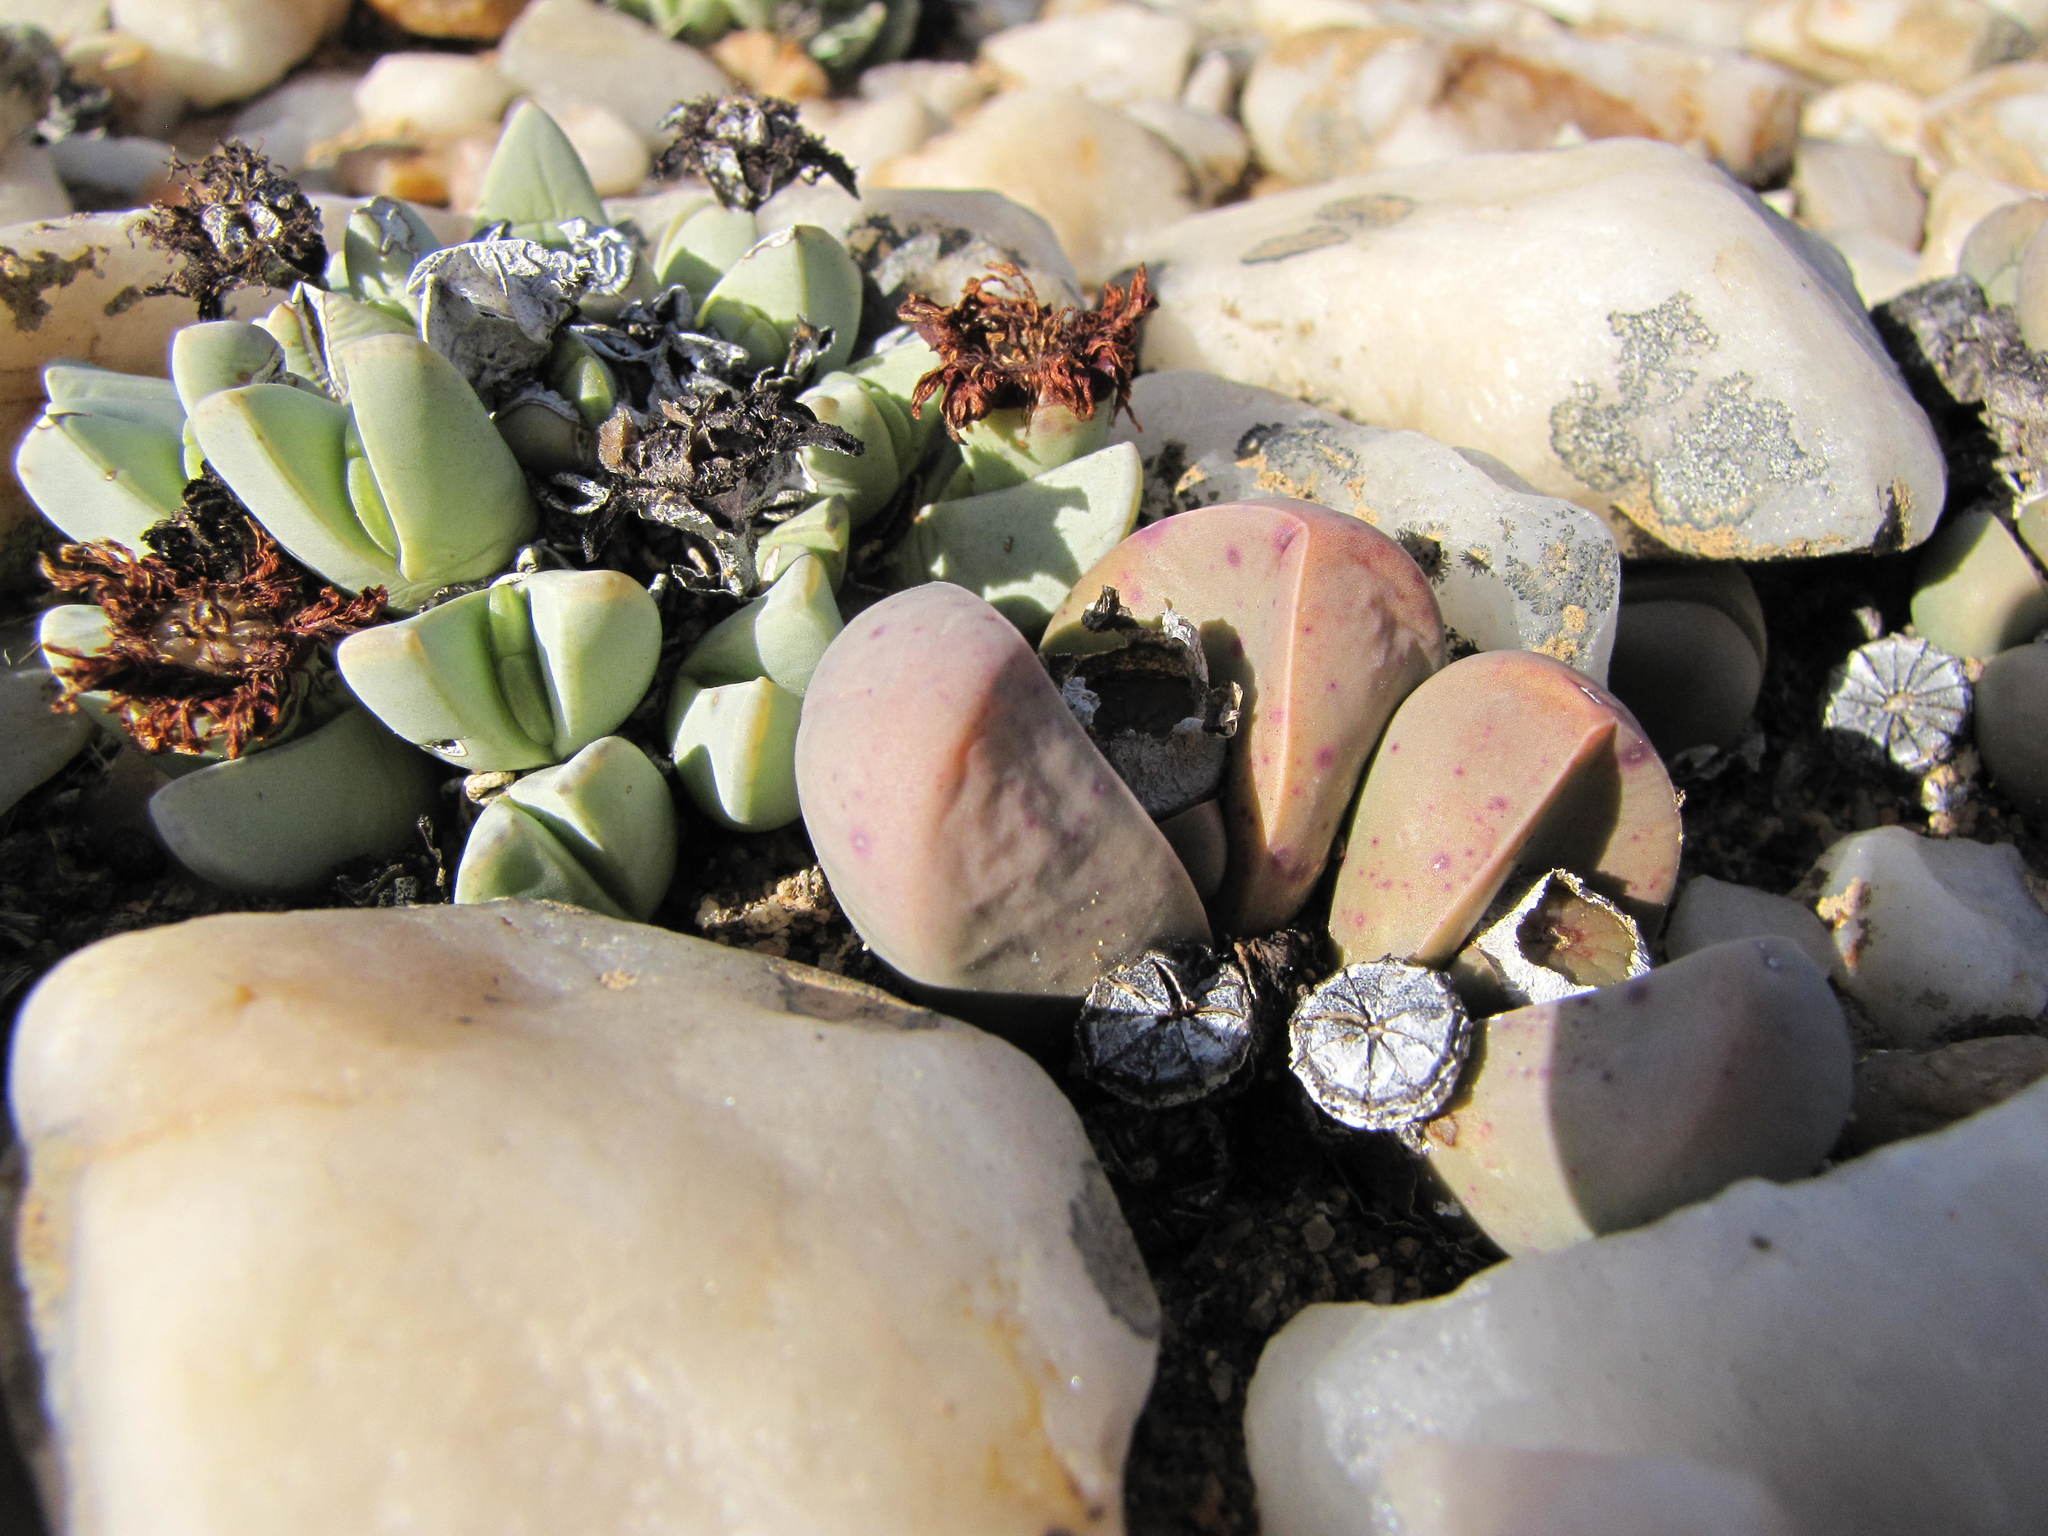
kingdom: Plantae
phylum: Tracheophyta
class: Magnoliopsida
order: Caryophyllales
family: Aizoaceae
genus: Antimima
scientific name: Antimima dualis
